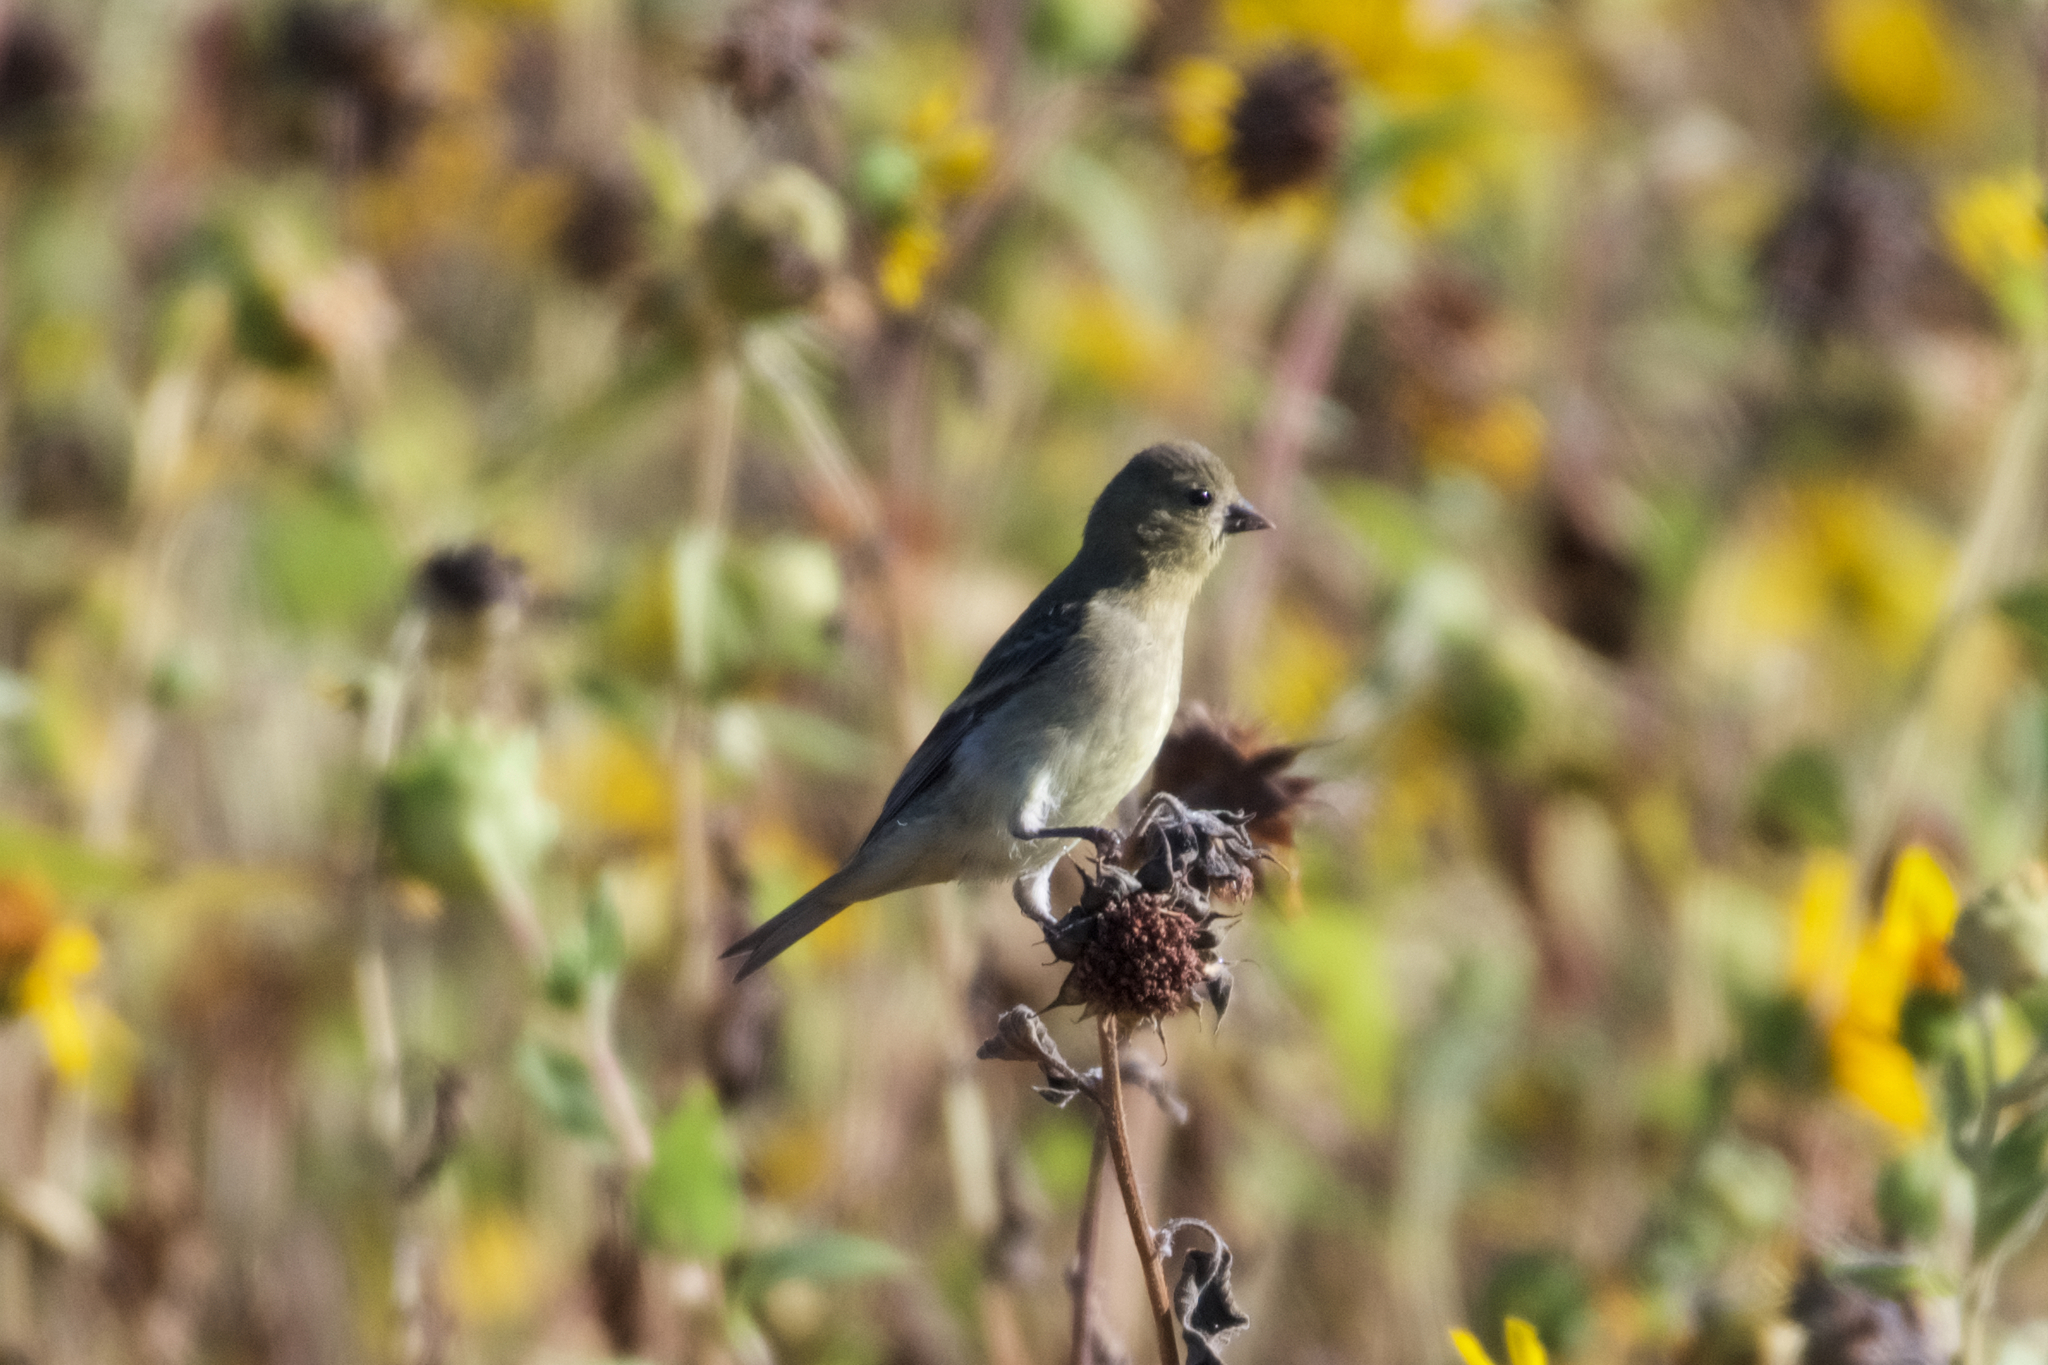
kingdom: Animalia
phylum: Chordata
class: Aves
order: Passeriformes
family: Fringillidae
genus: Spinus
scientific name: Spinus psaltria
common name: Lesser goldfinch
